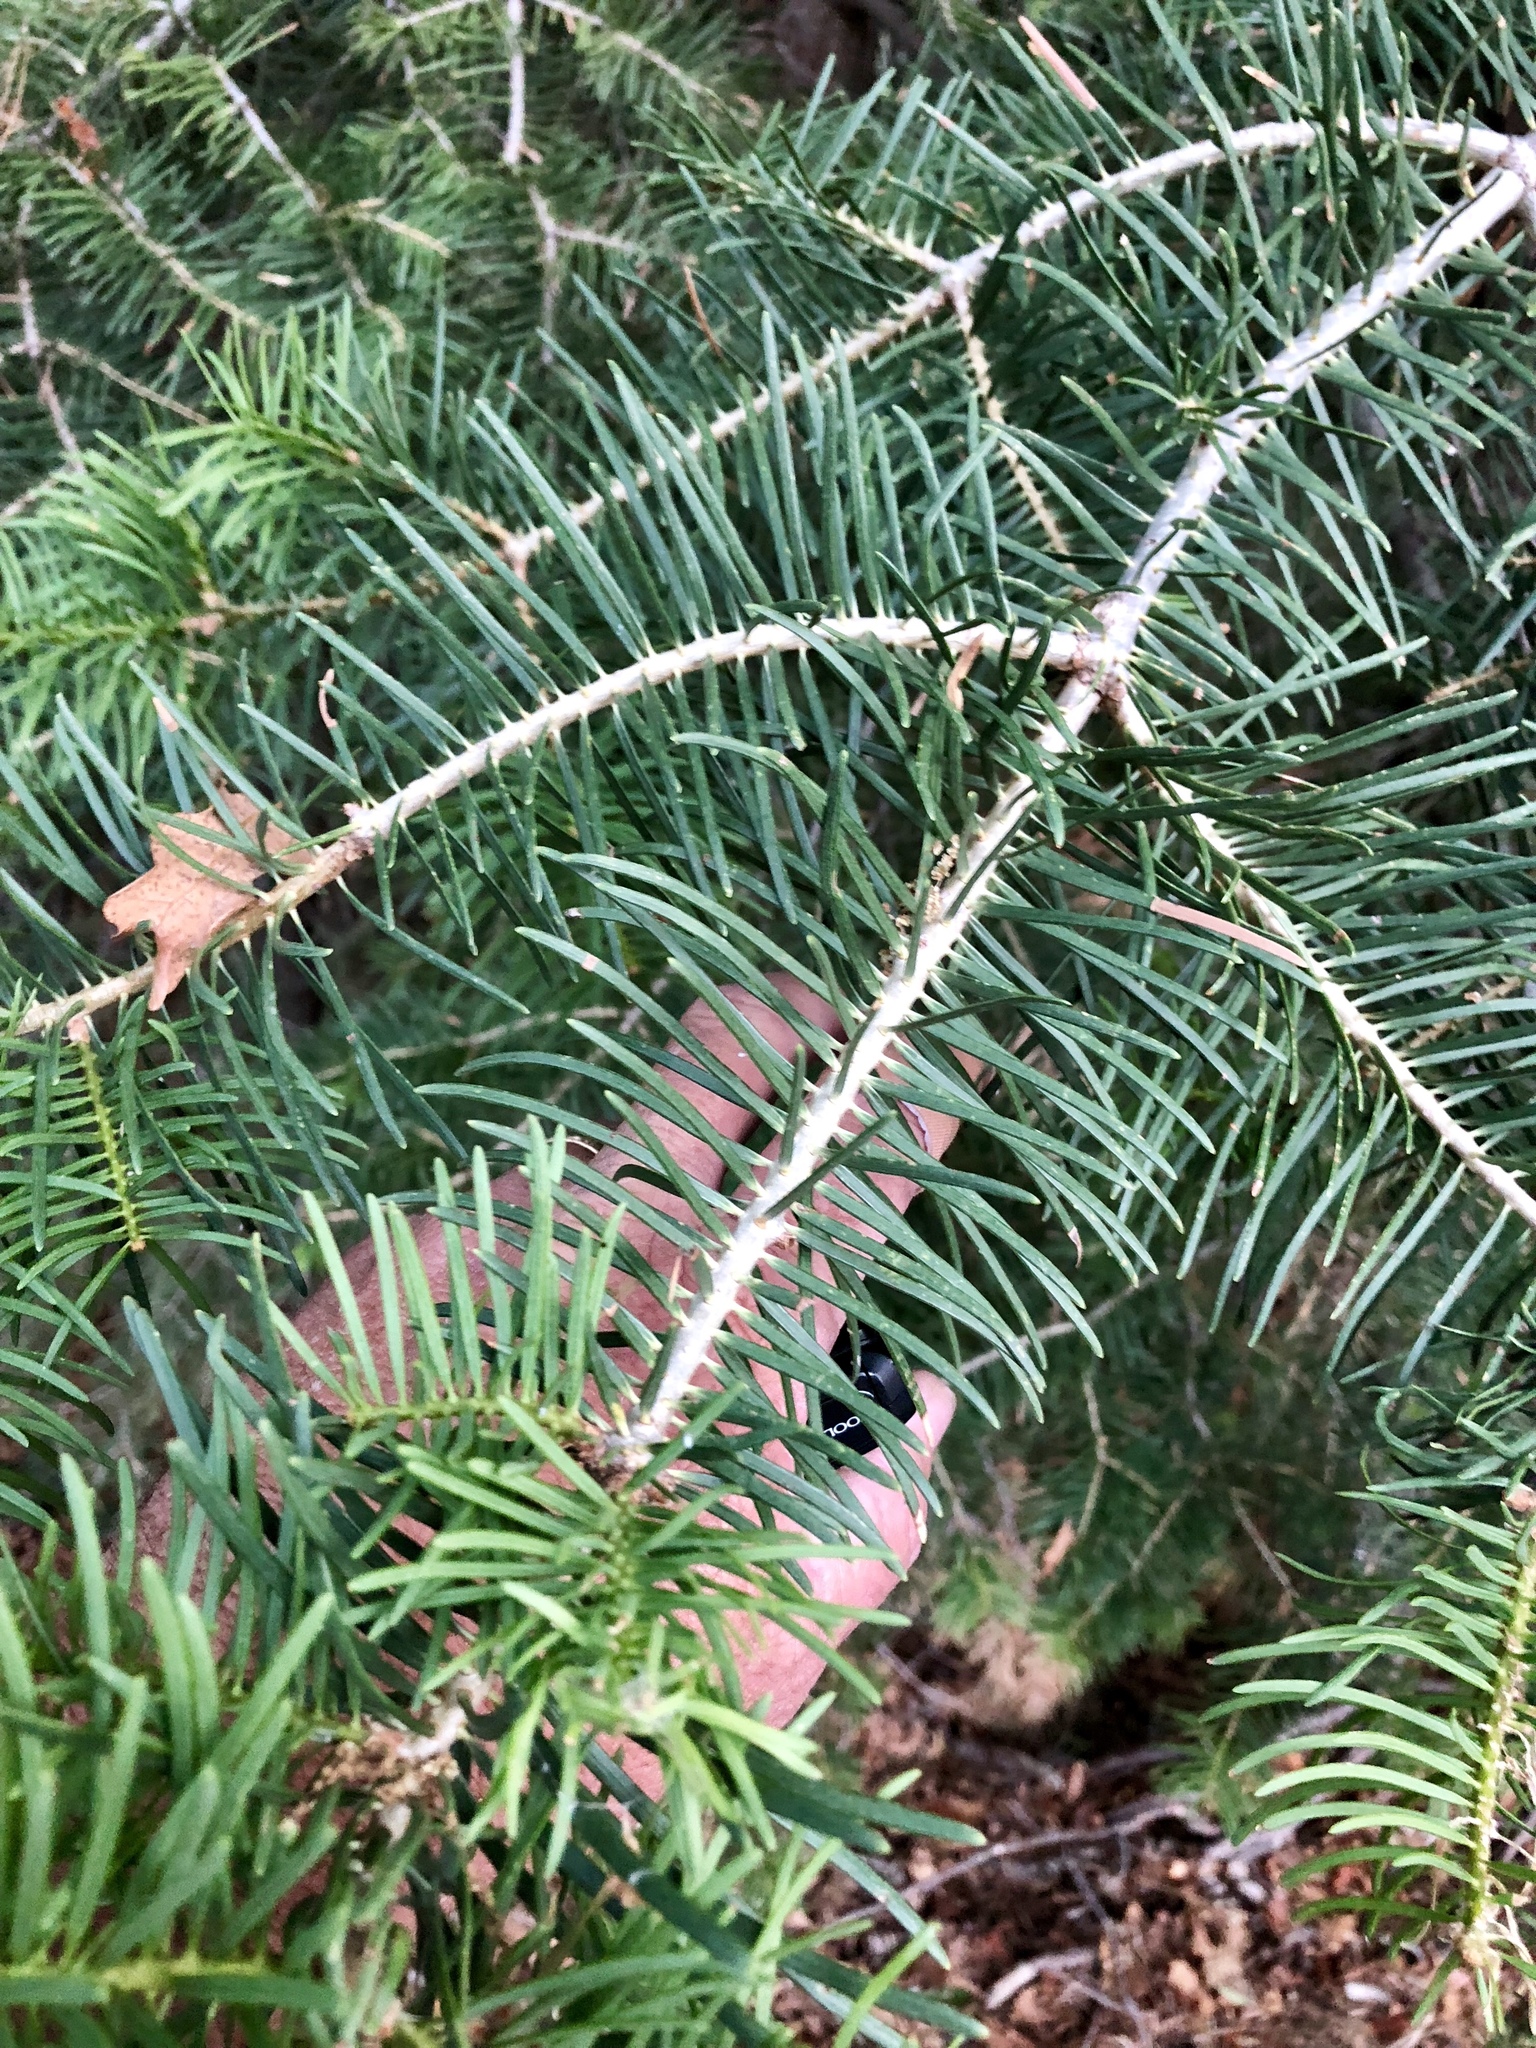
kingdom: Plantae
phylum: Tracheophyta
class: Pinopsida
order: Pinales
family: Pinaceae
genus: Abies
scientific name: Abies concolor
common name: Colorado fir
